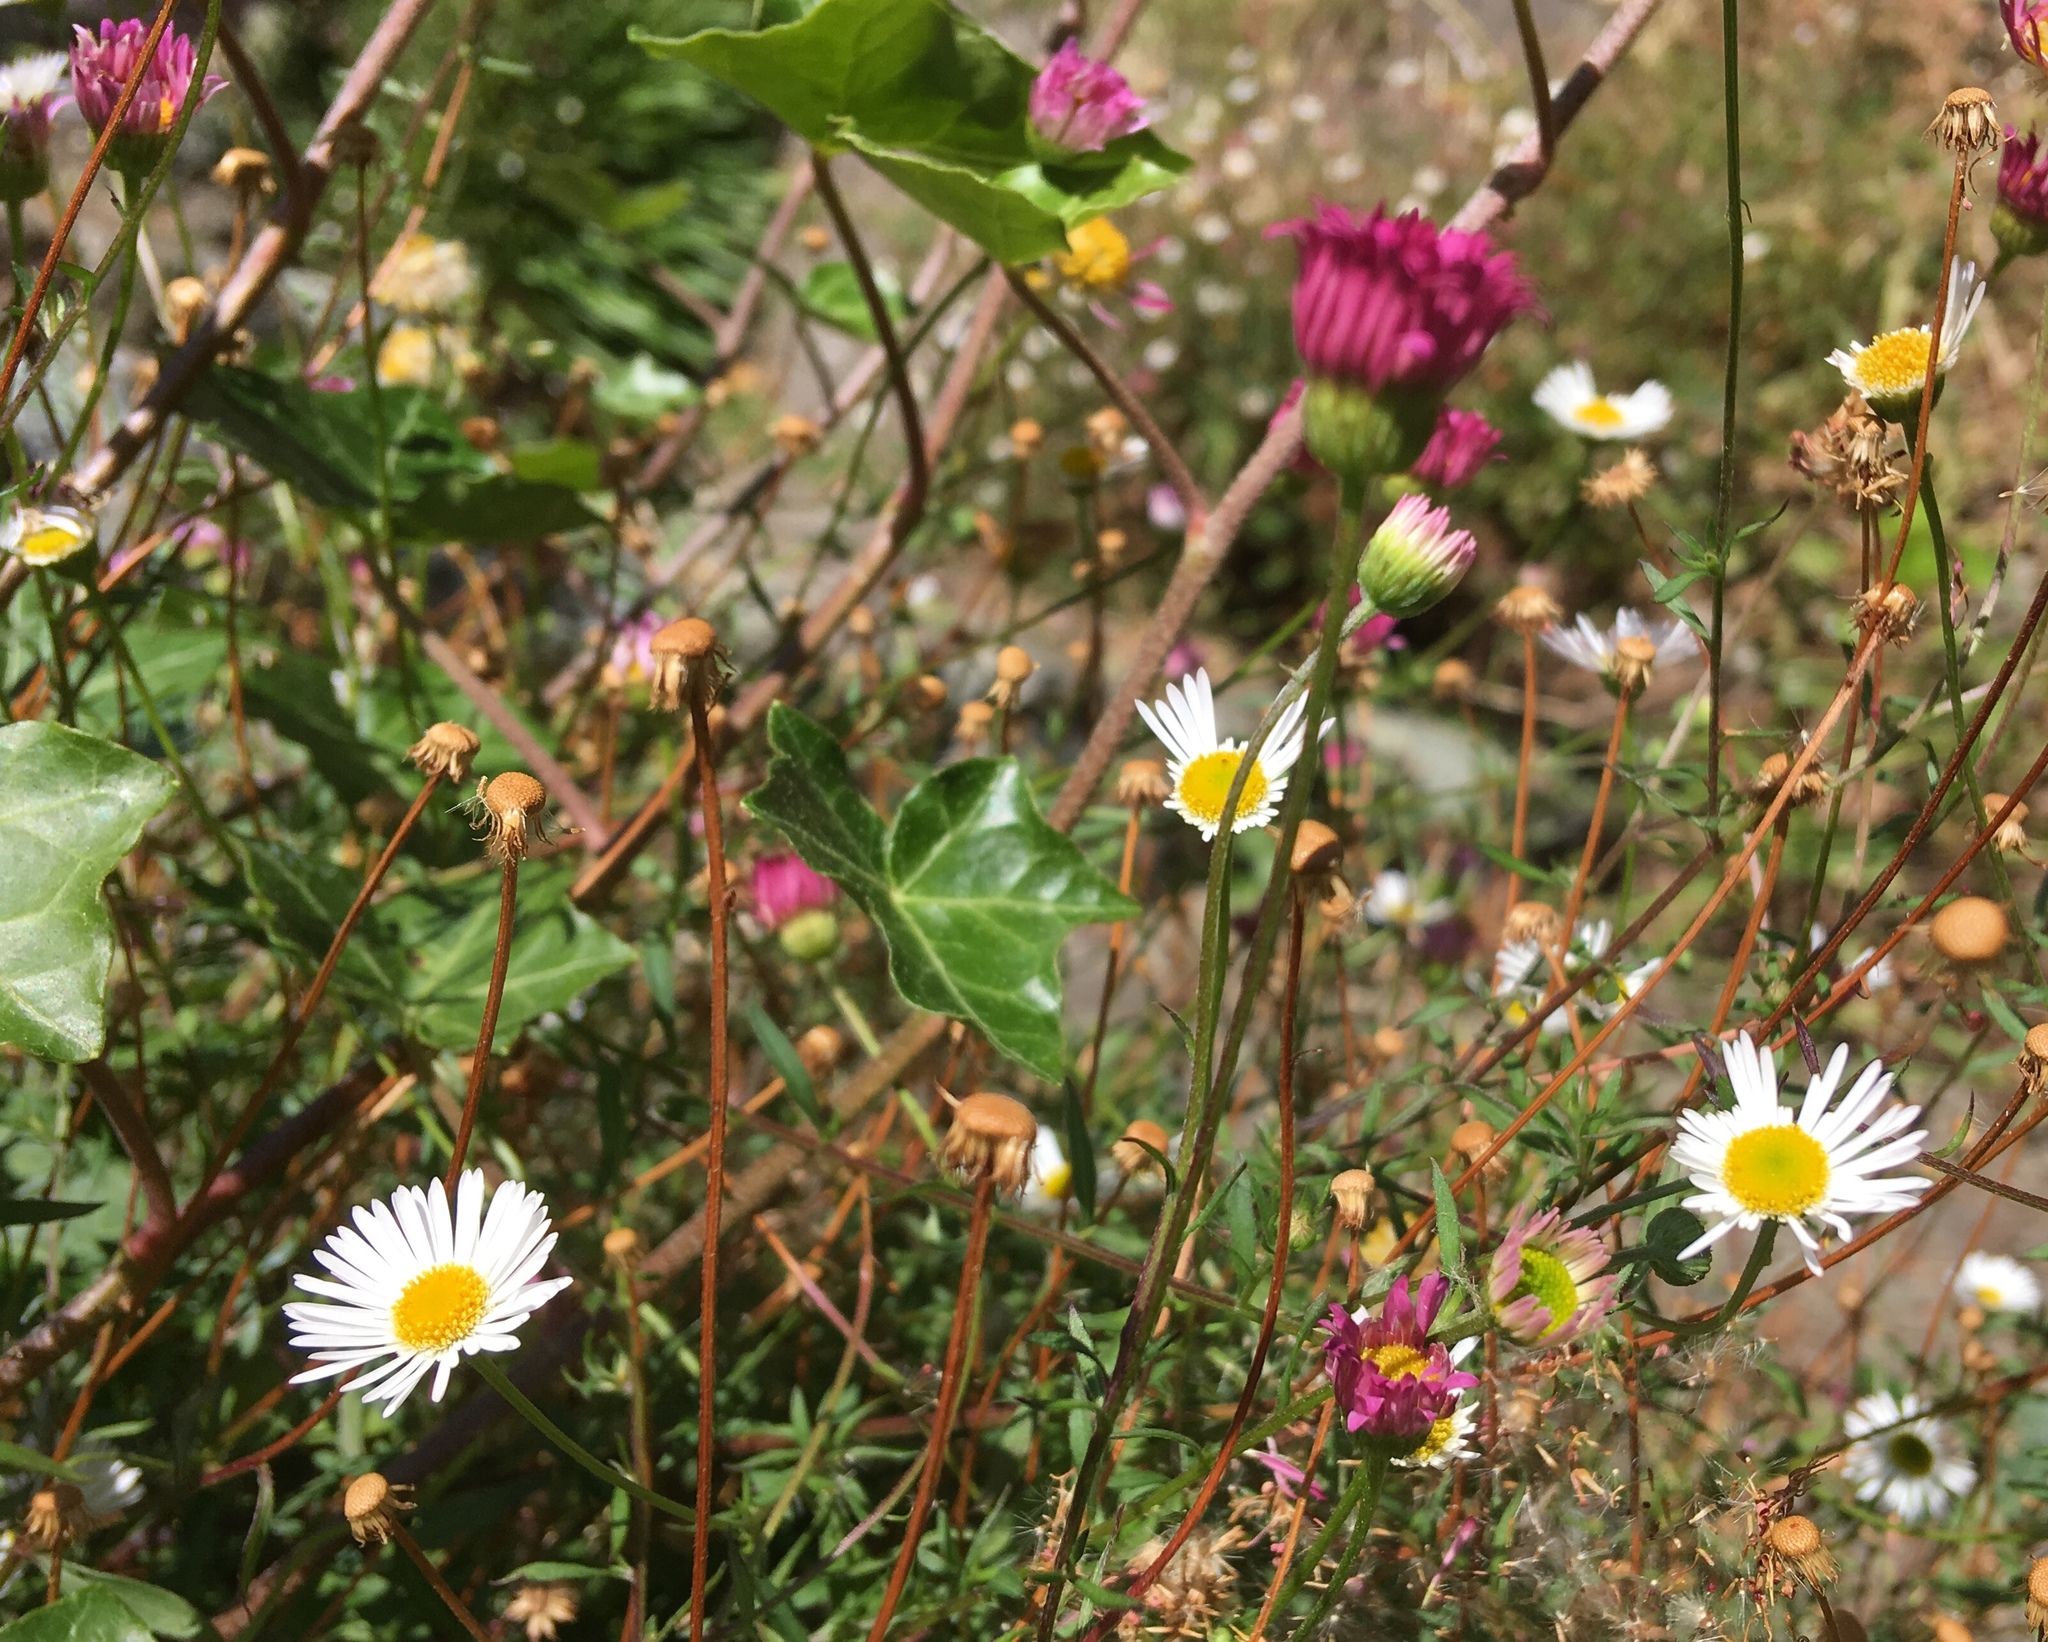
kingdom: Plantae
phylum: Tracheophyta
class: Magnoliopsida
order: Asterales
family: Asteraceae
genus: Erigeron
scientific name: Erigeron karvinskianus
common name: Mexican fleabane
